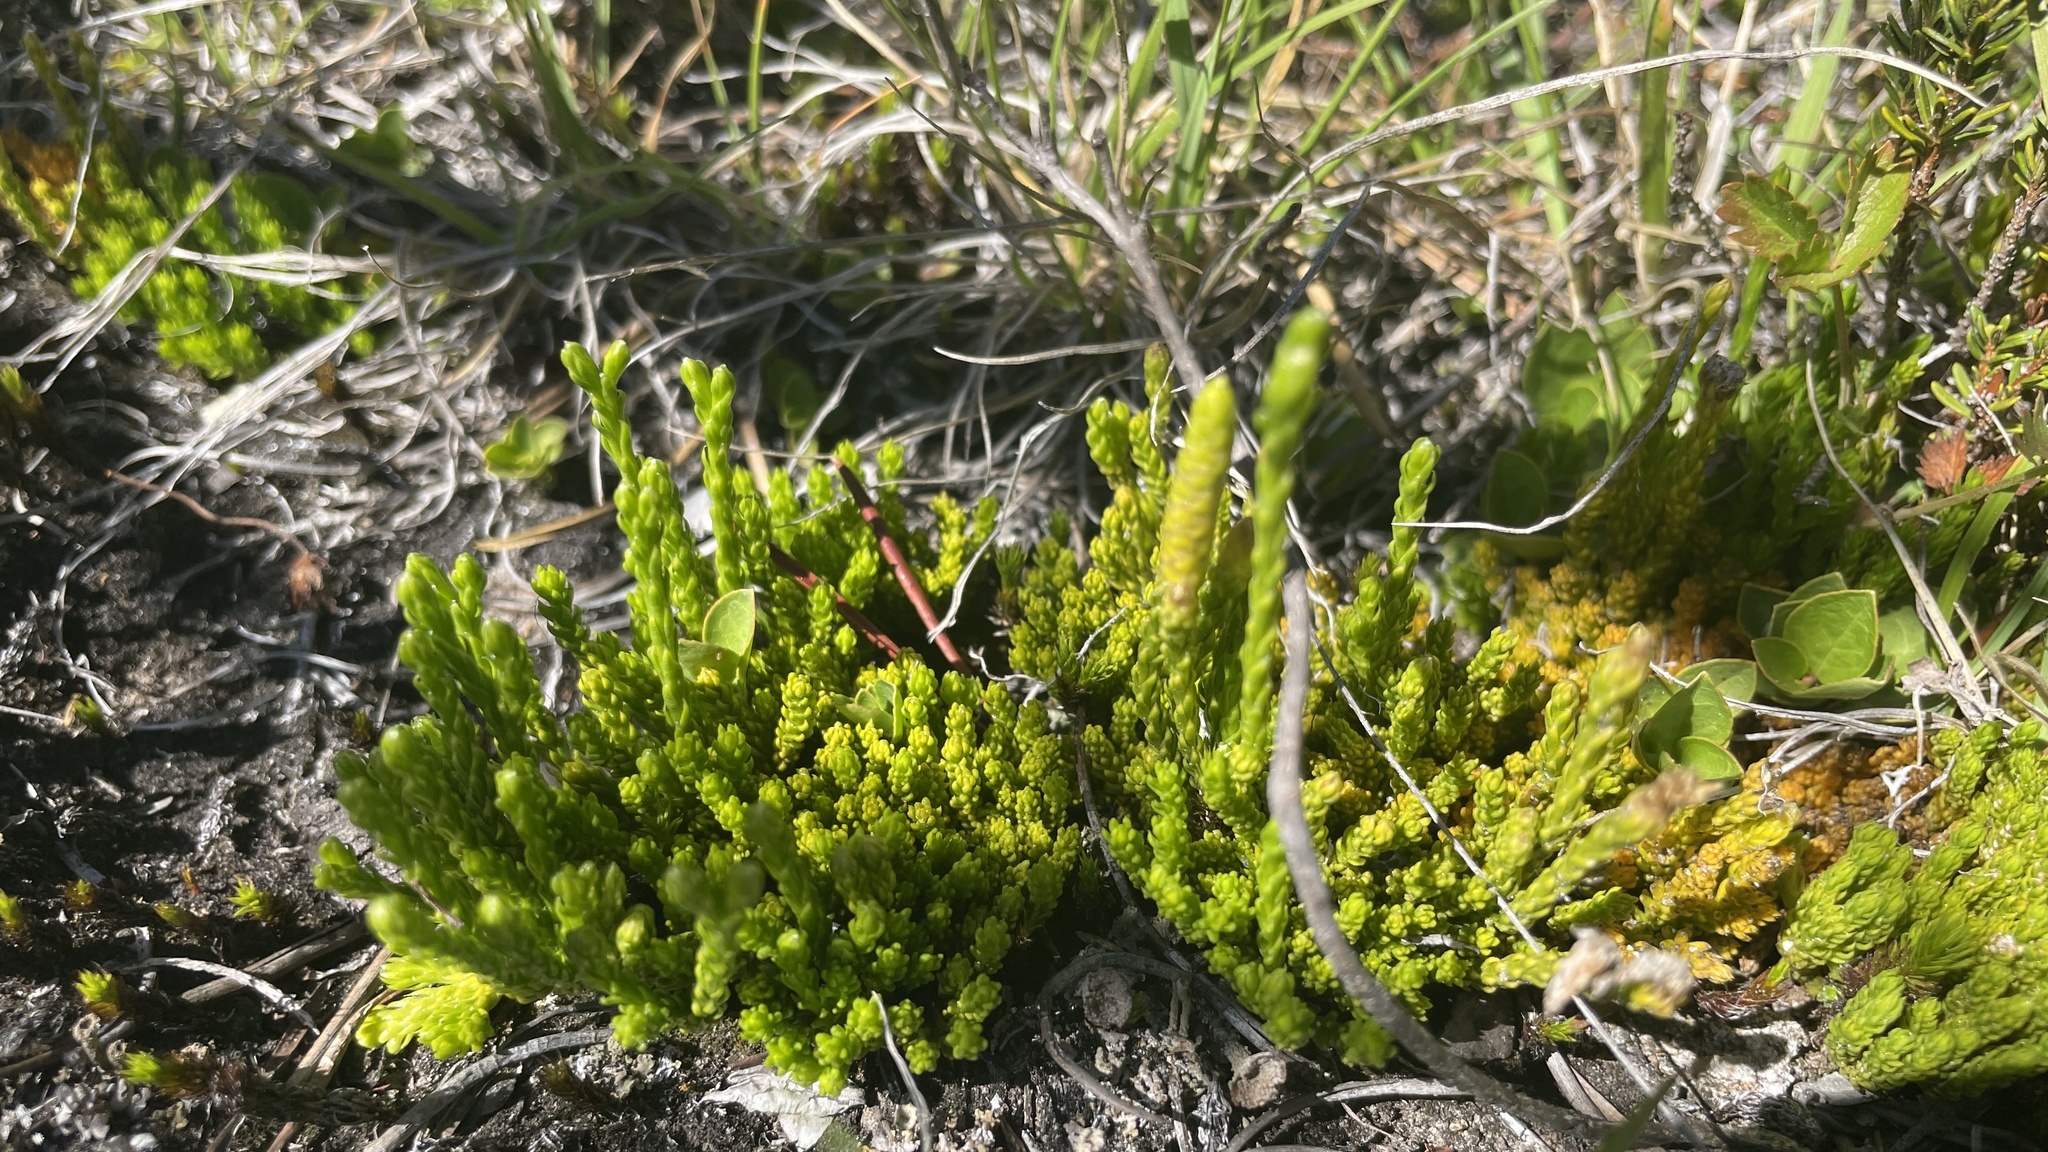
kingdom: Plantae
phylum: Tracheophyta
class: Lycopodiopsida
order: Lycopodiales
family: Lycopodiaceae
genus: Diphasiastrum
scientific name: Diphasiastrum sitchense
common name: Alaska clubmoss
